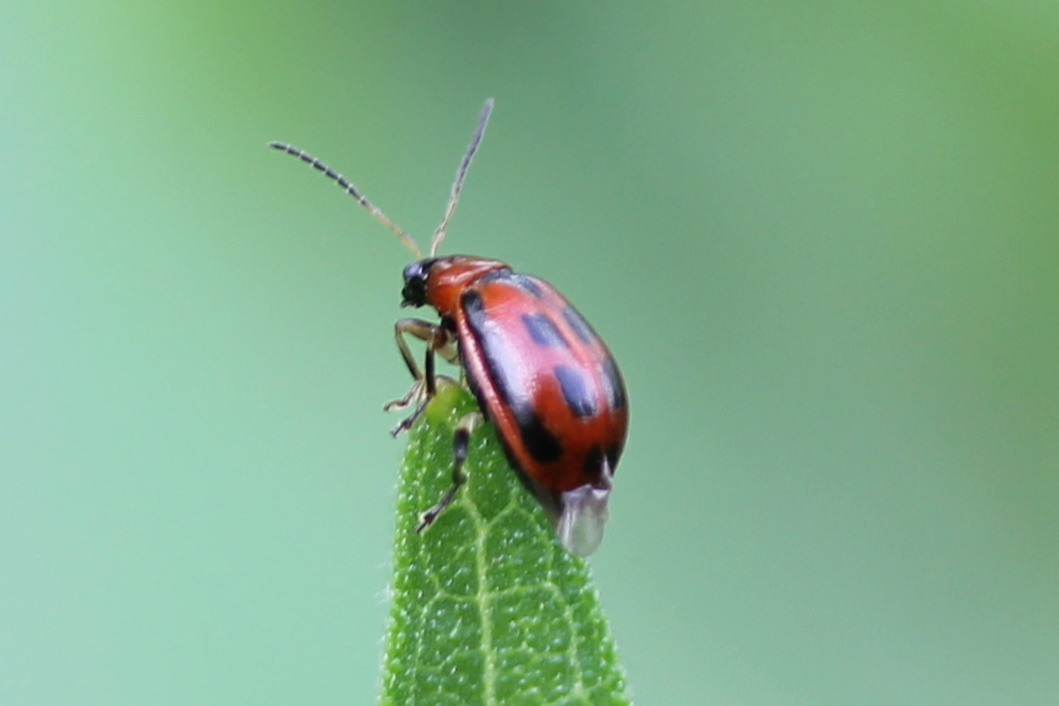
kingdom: Animalia
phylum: Arthropoda
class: Insecta
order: Coleoptera
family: Chrysomelidae
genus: Cerotoma
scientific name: Cerotoma trifurcata
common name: Bean leaf beetle
